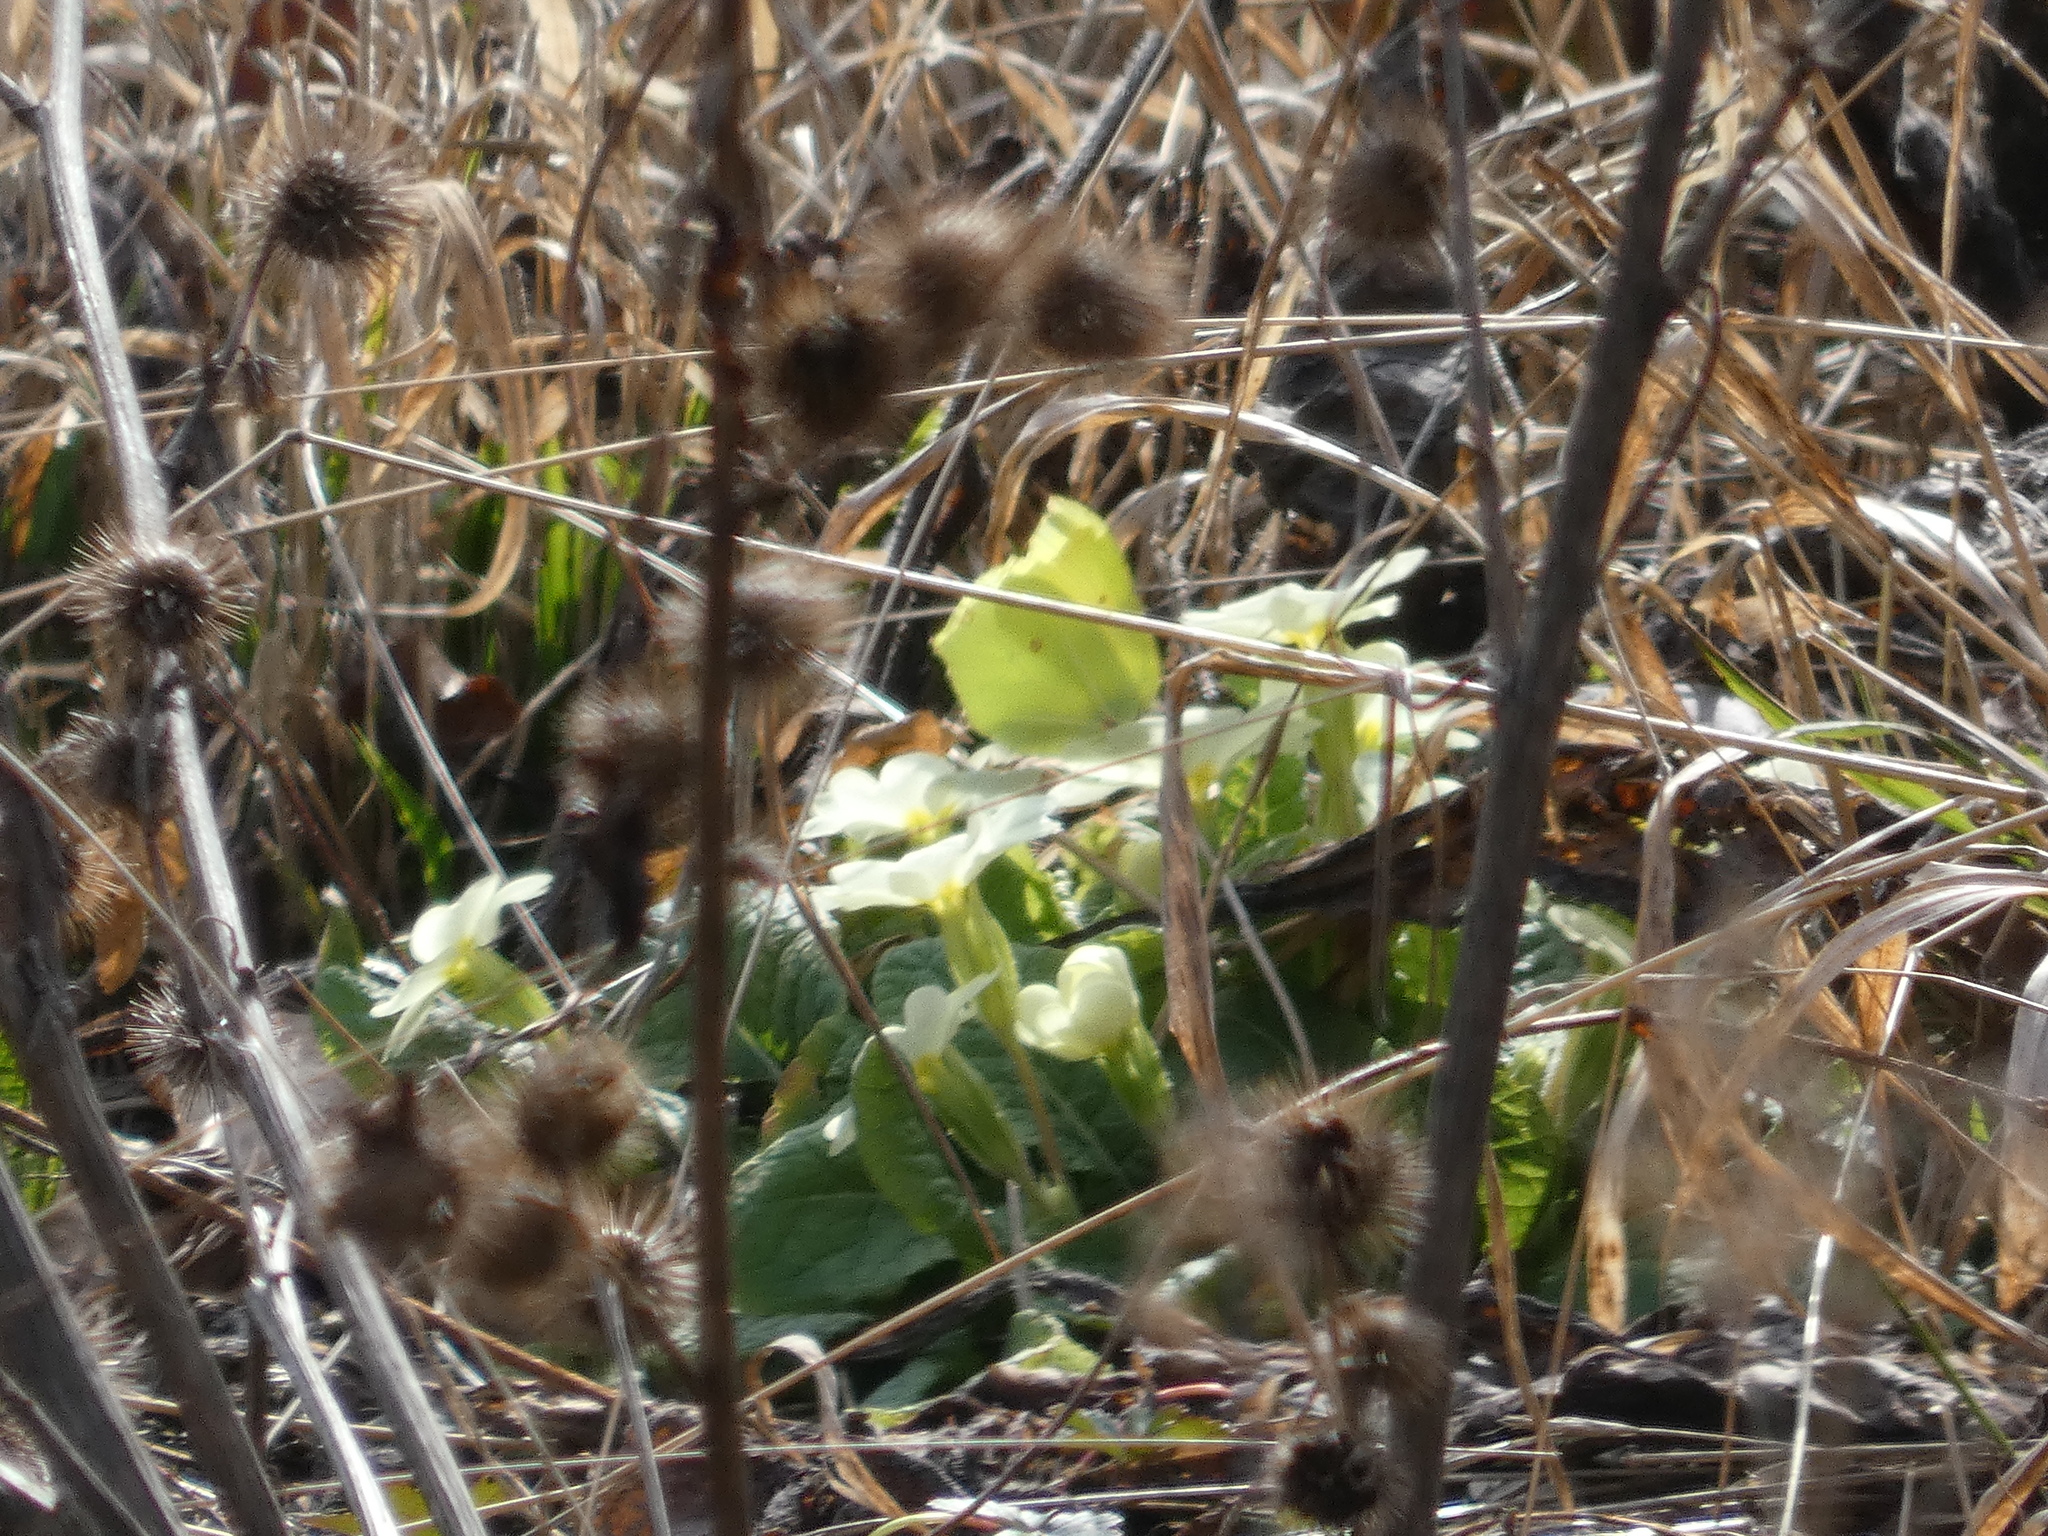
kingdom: Animalia
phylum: Arthropoda
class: Insecta
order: Lepidoptera
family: Pieridae
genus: Gonepteryx
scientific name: Gonepteryx rhamni
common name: Brimstone
